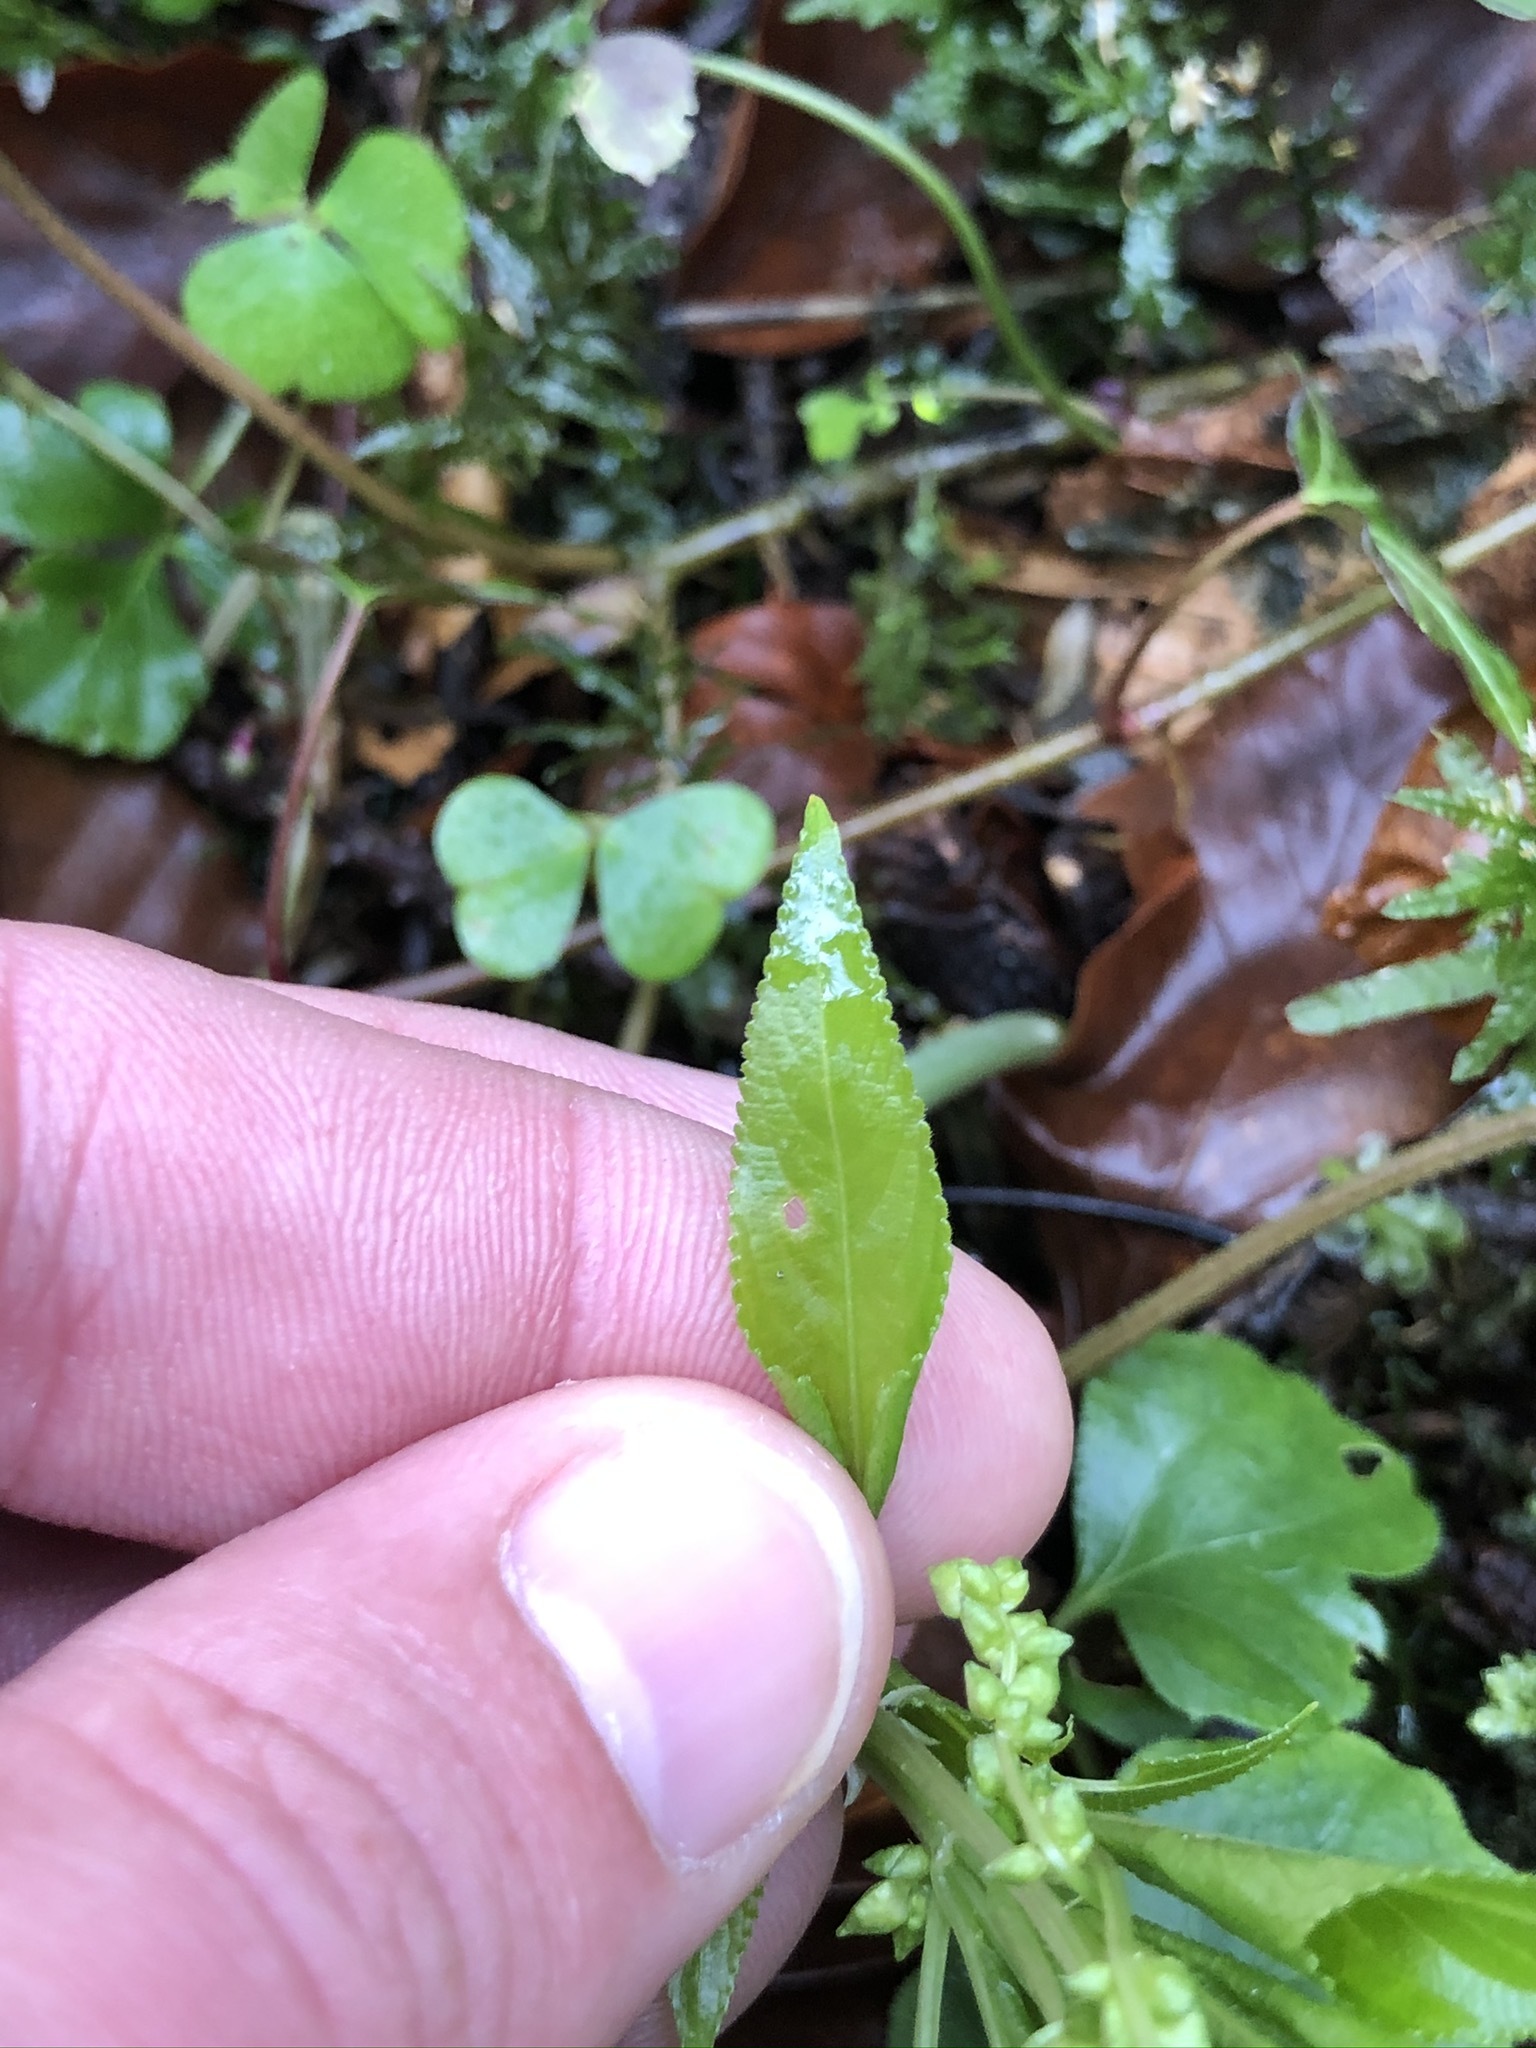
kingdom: Plantae
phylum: Tracheophyta
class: Magnoliopsida
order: Malpighiales
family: Euphorbiaceae
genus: Mercurialis
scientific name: Mercurialis perennis
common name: Dog mercury
